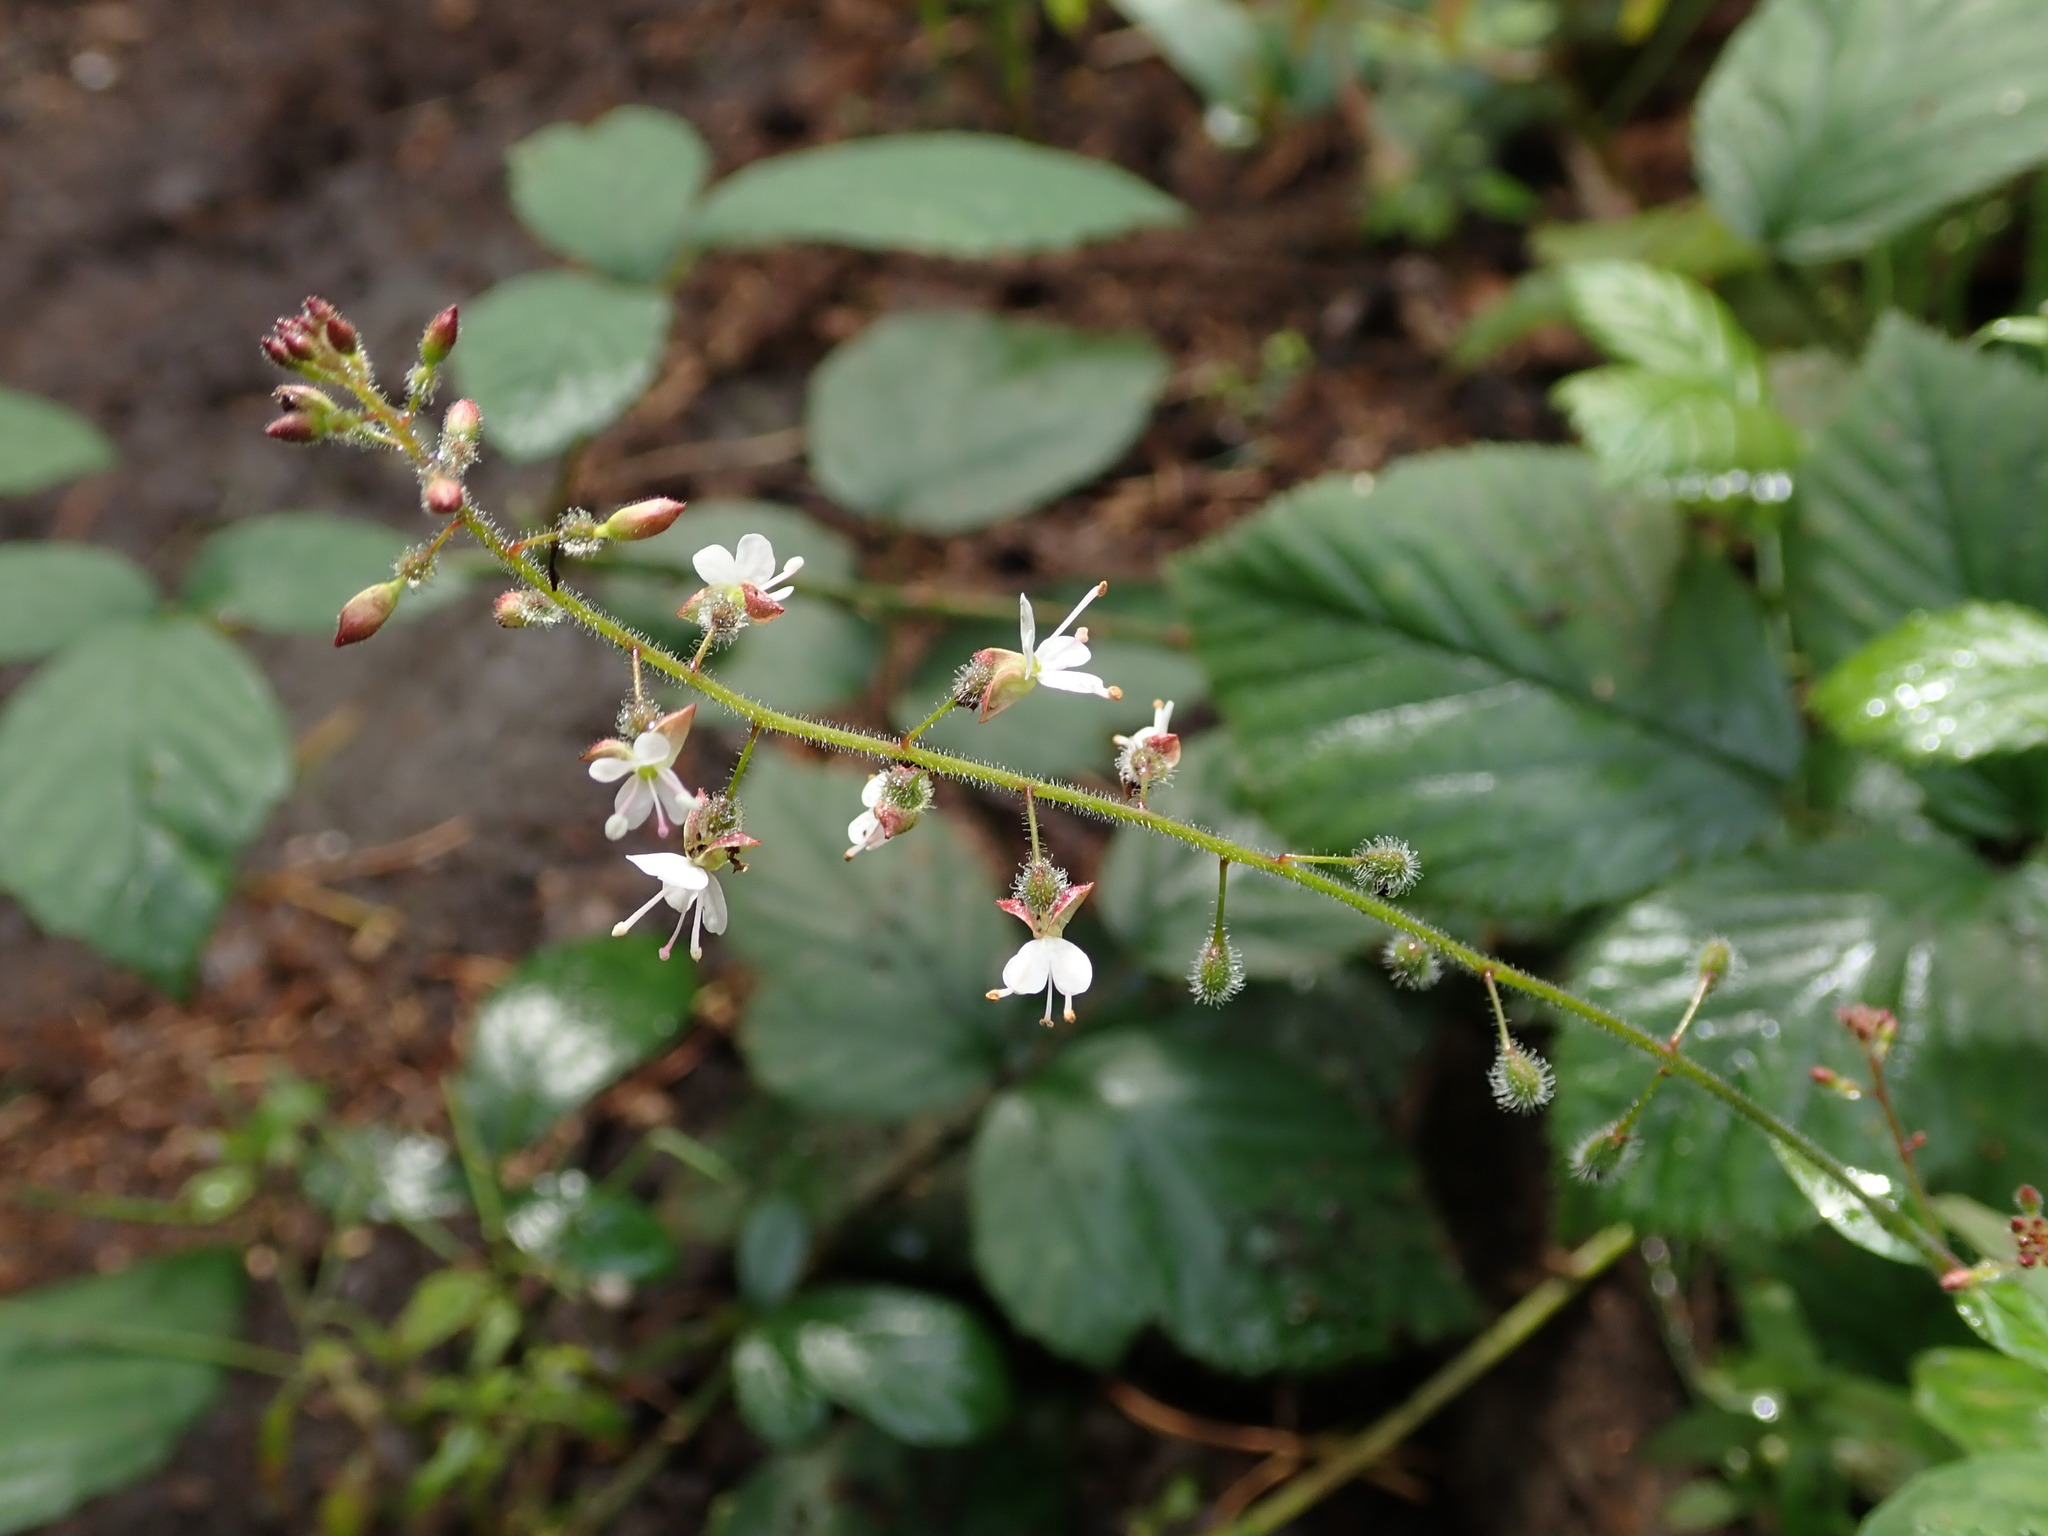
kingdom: Plantae
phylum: Tracheophyta
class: Magnoliopsida
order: Myrtales
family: Onagraceae
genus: Circaea
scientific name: Circaea lutetiana
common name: Enchanter's-nightshade
